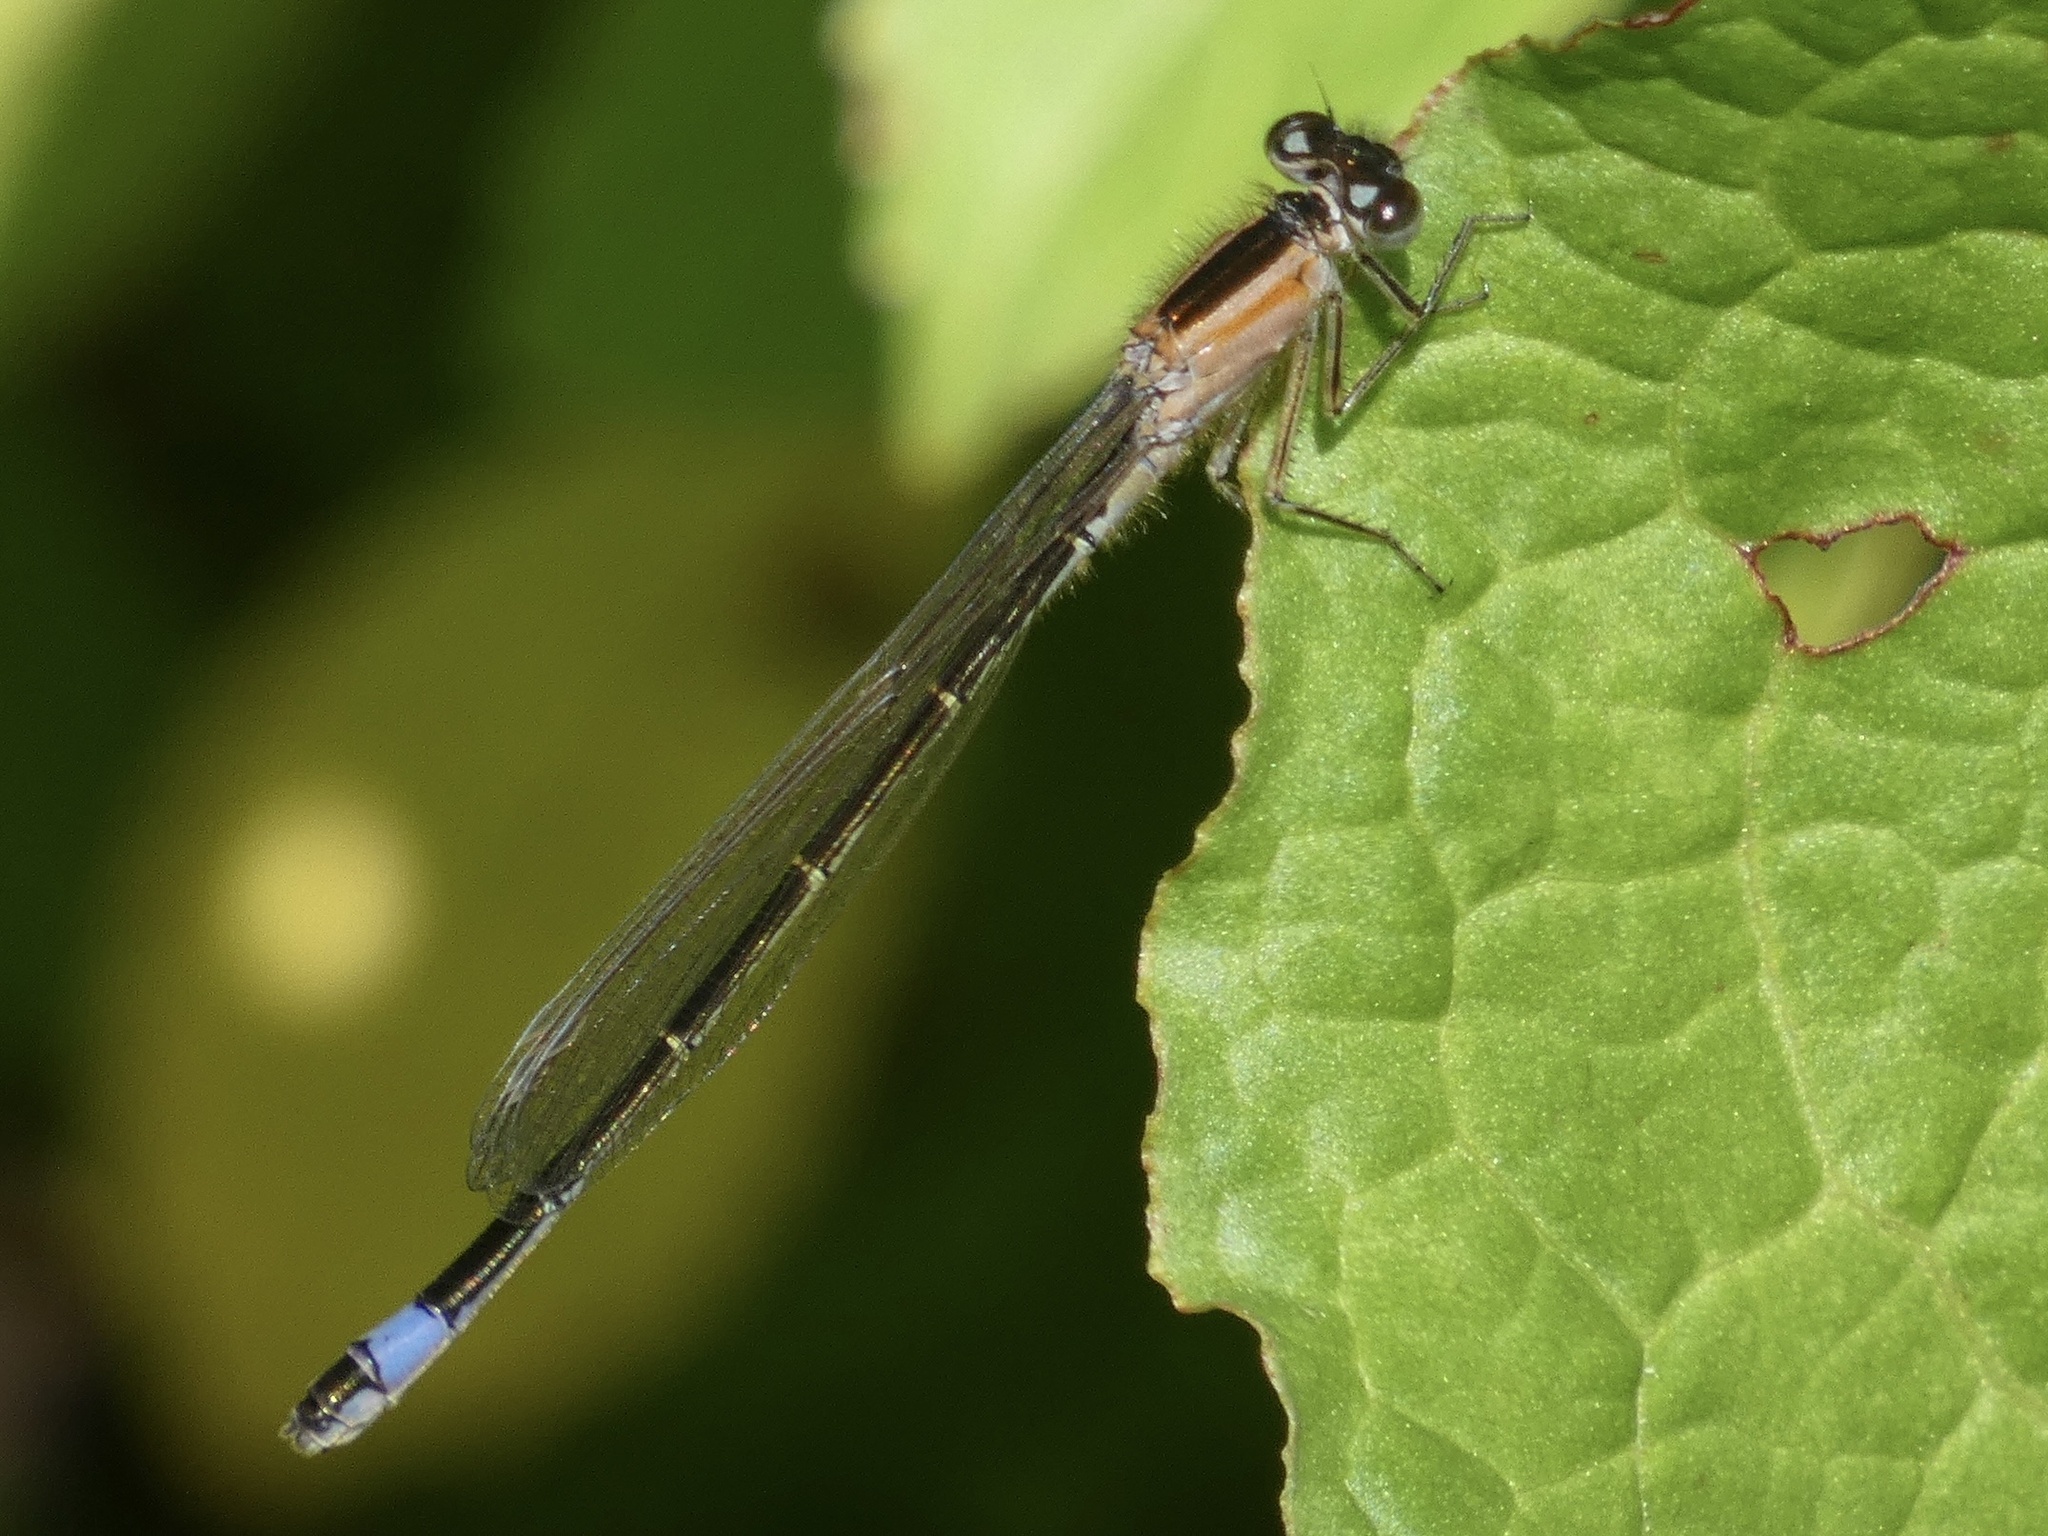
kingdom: Animalia
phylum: Arthropoda
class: Insecta
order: Odonata
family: Coenagrionidae
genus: Ischnura
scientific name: Ischnura elegans
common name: Blue-tailed damselfly
